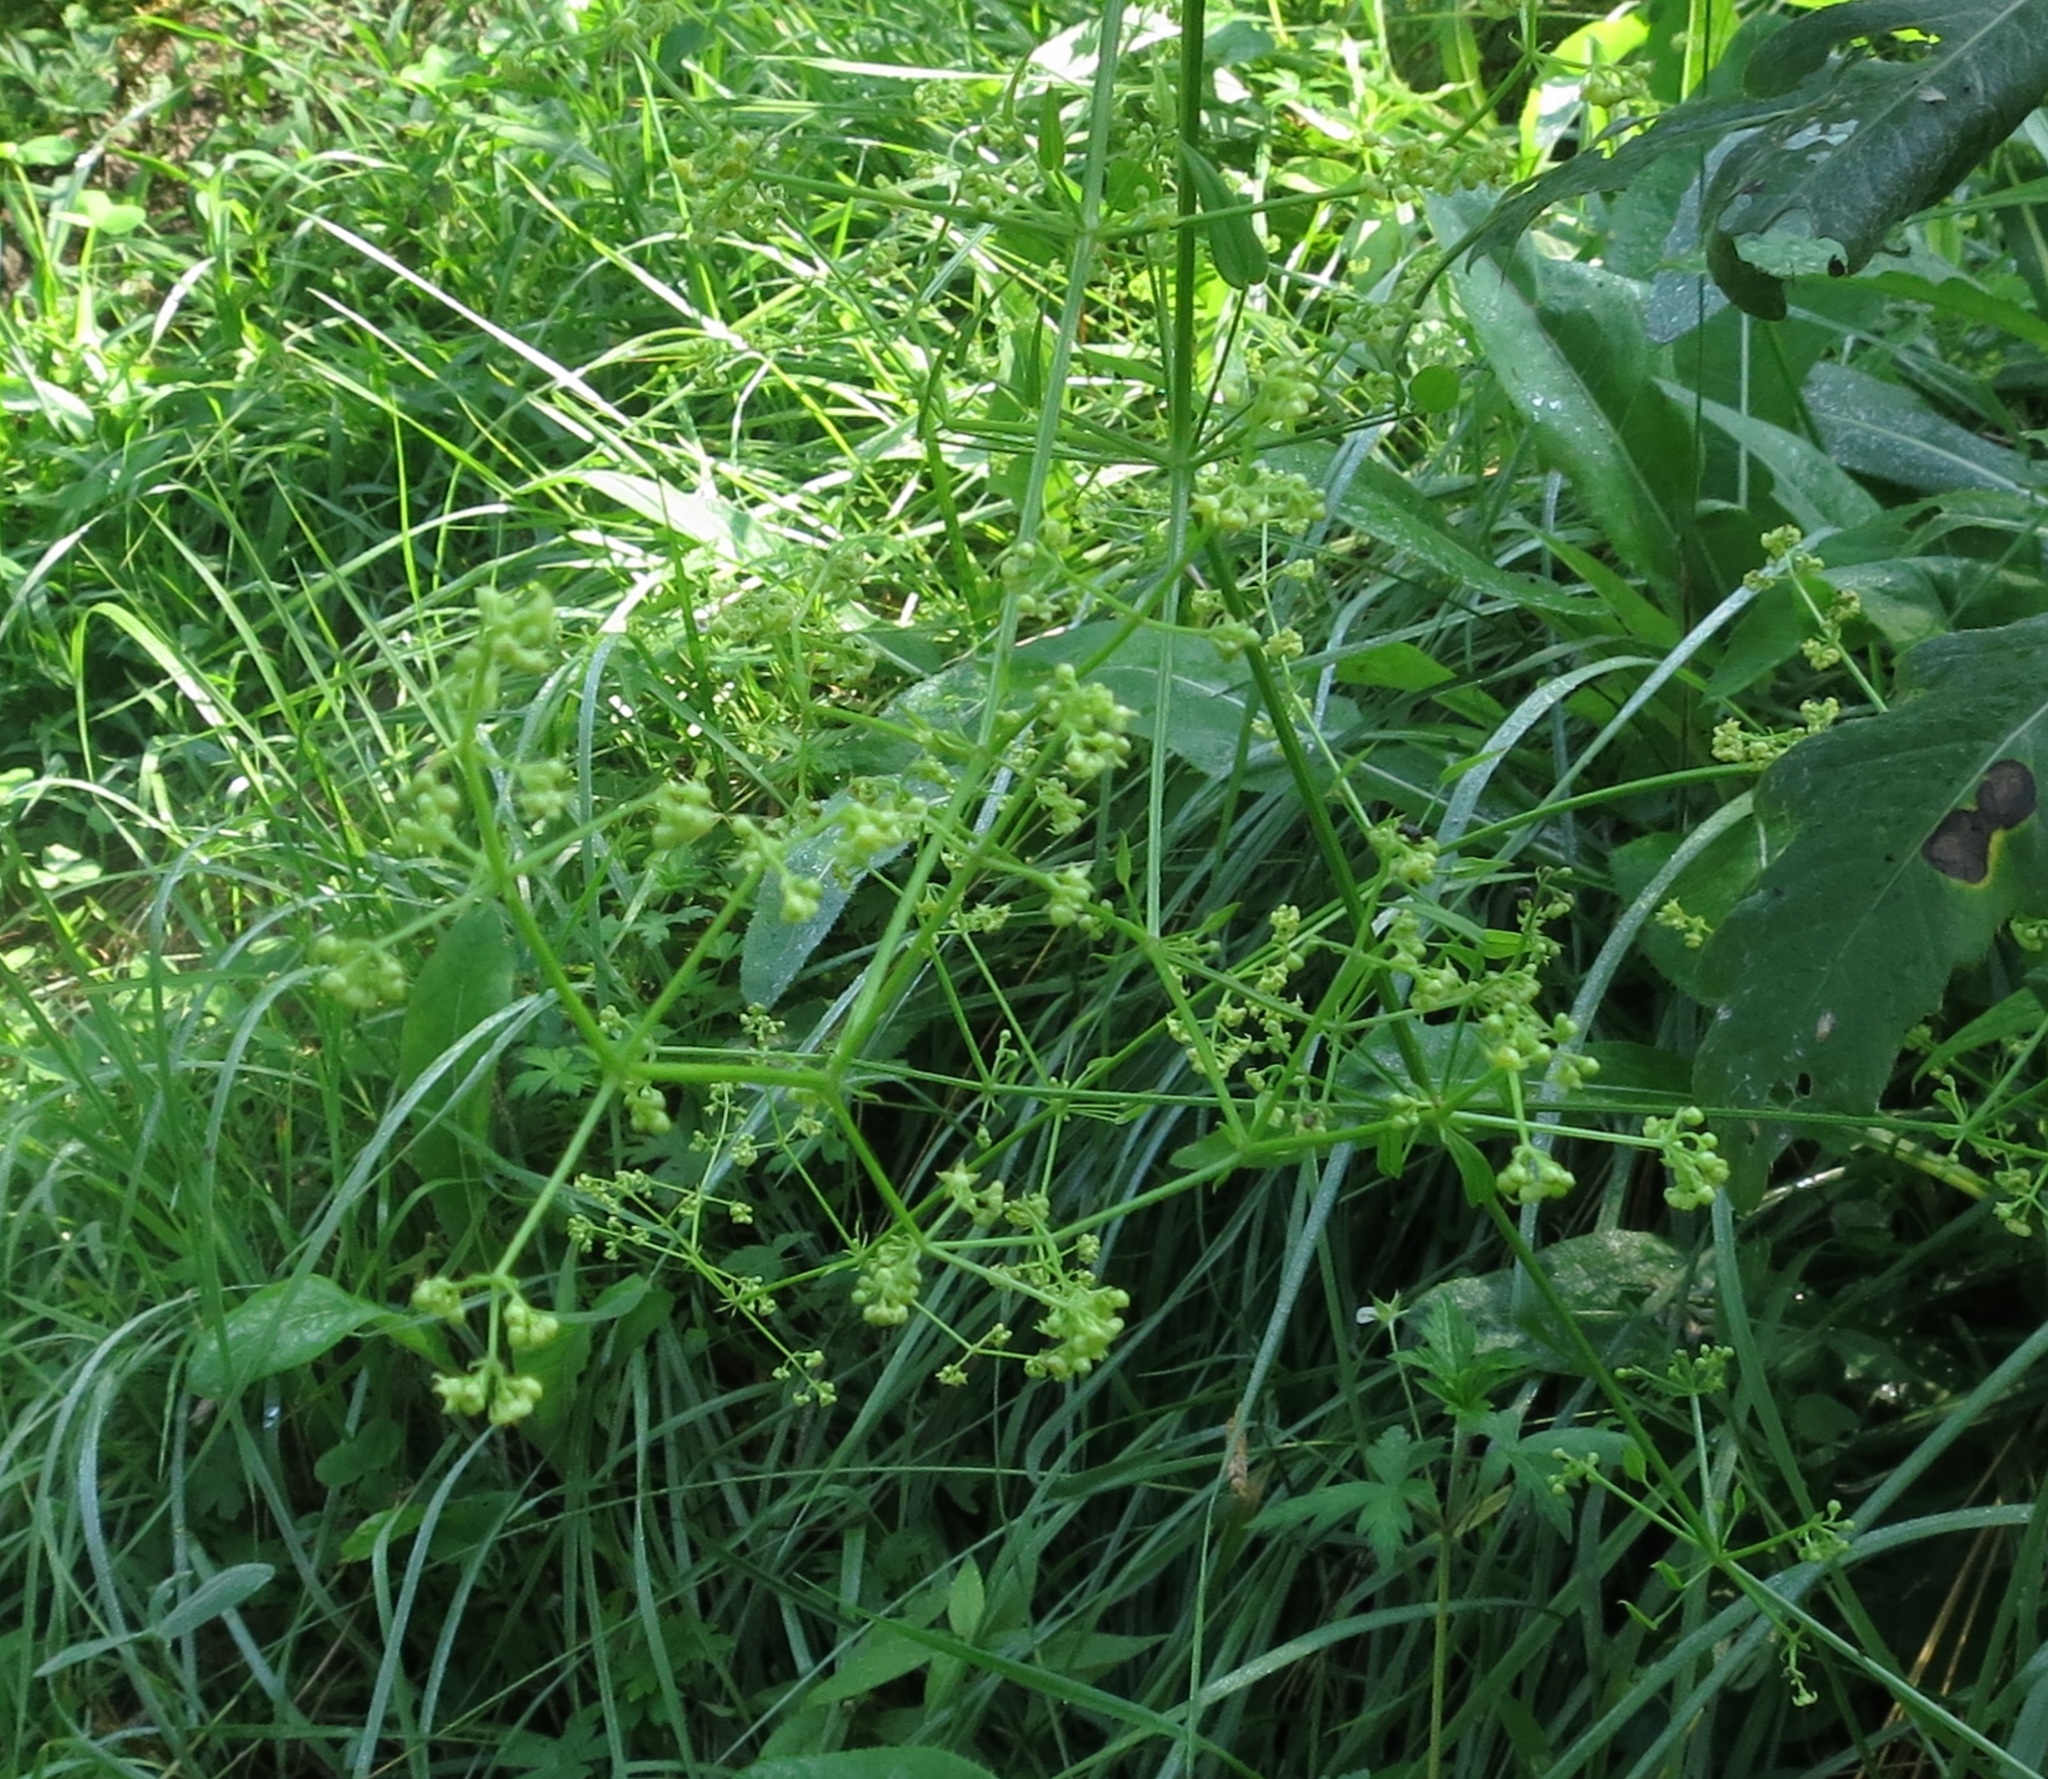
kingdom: Plantae
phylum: Tracheophyta
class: Magnoliopsida
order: Gentianales
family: Rubiaceae
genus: Rubia
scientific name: Rubia cordifolia
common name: Indian madder
